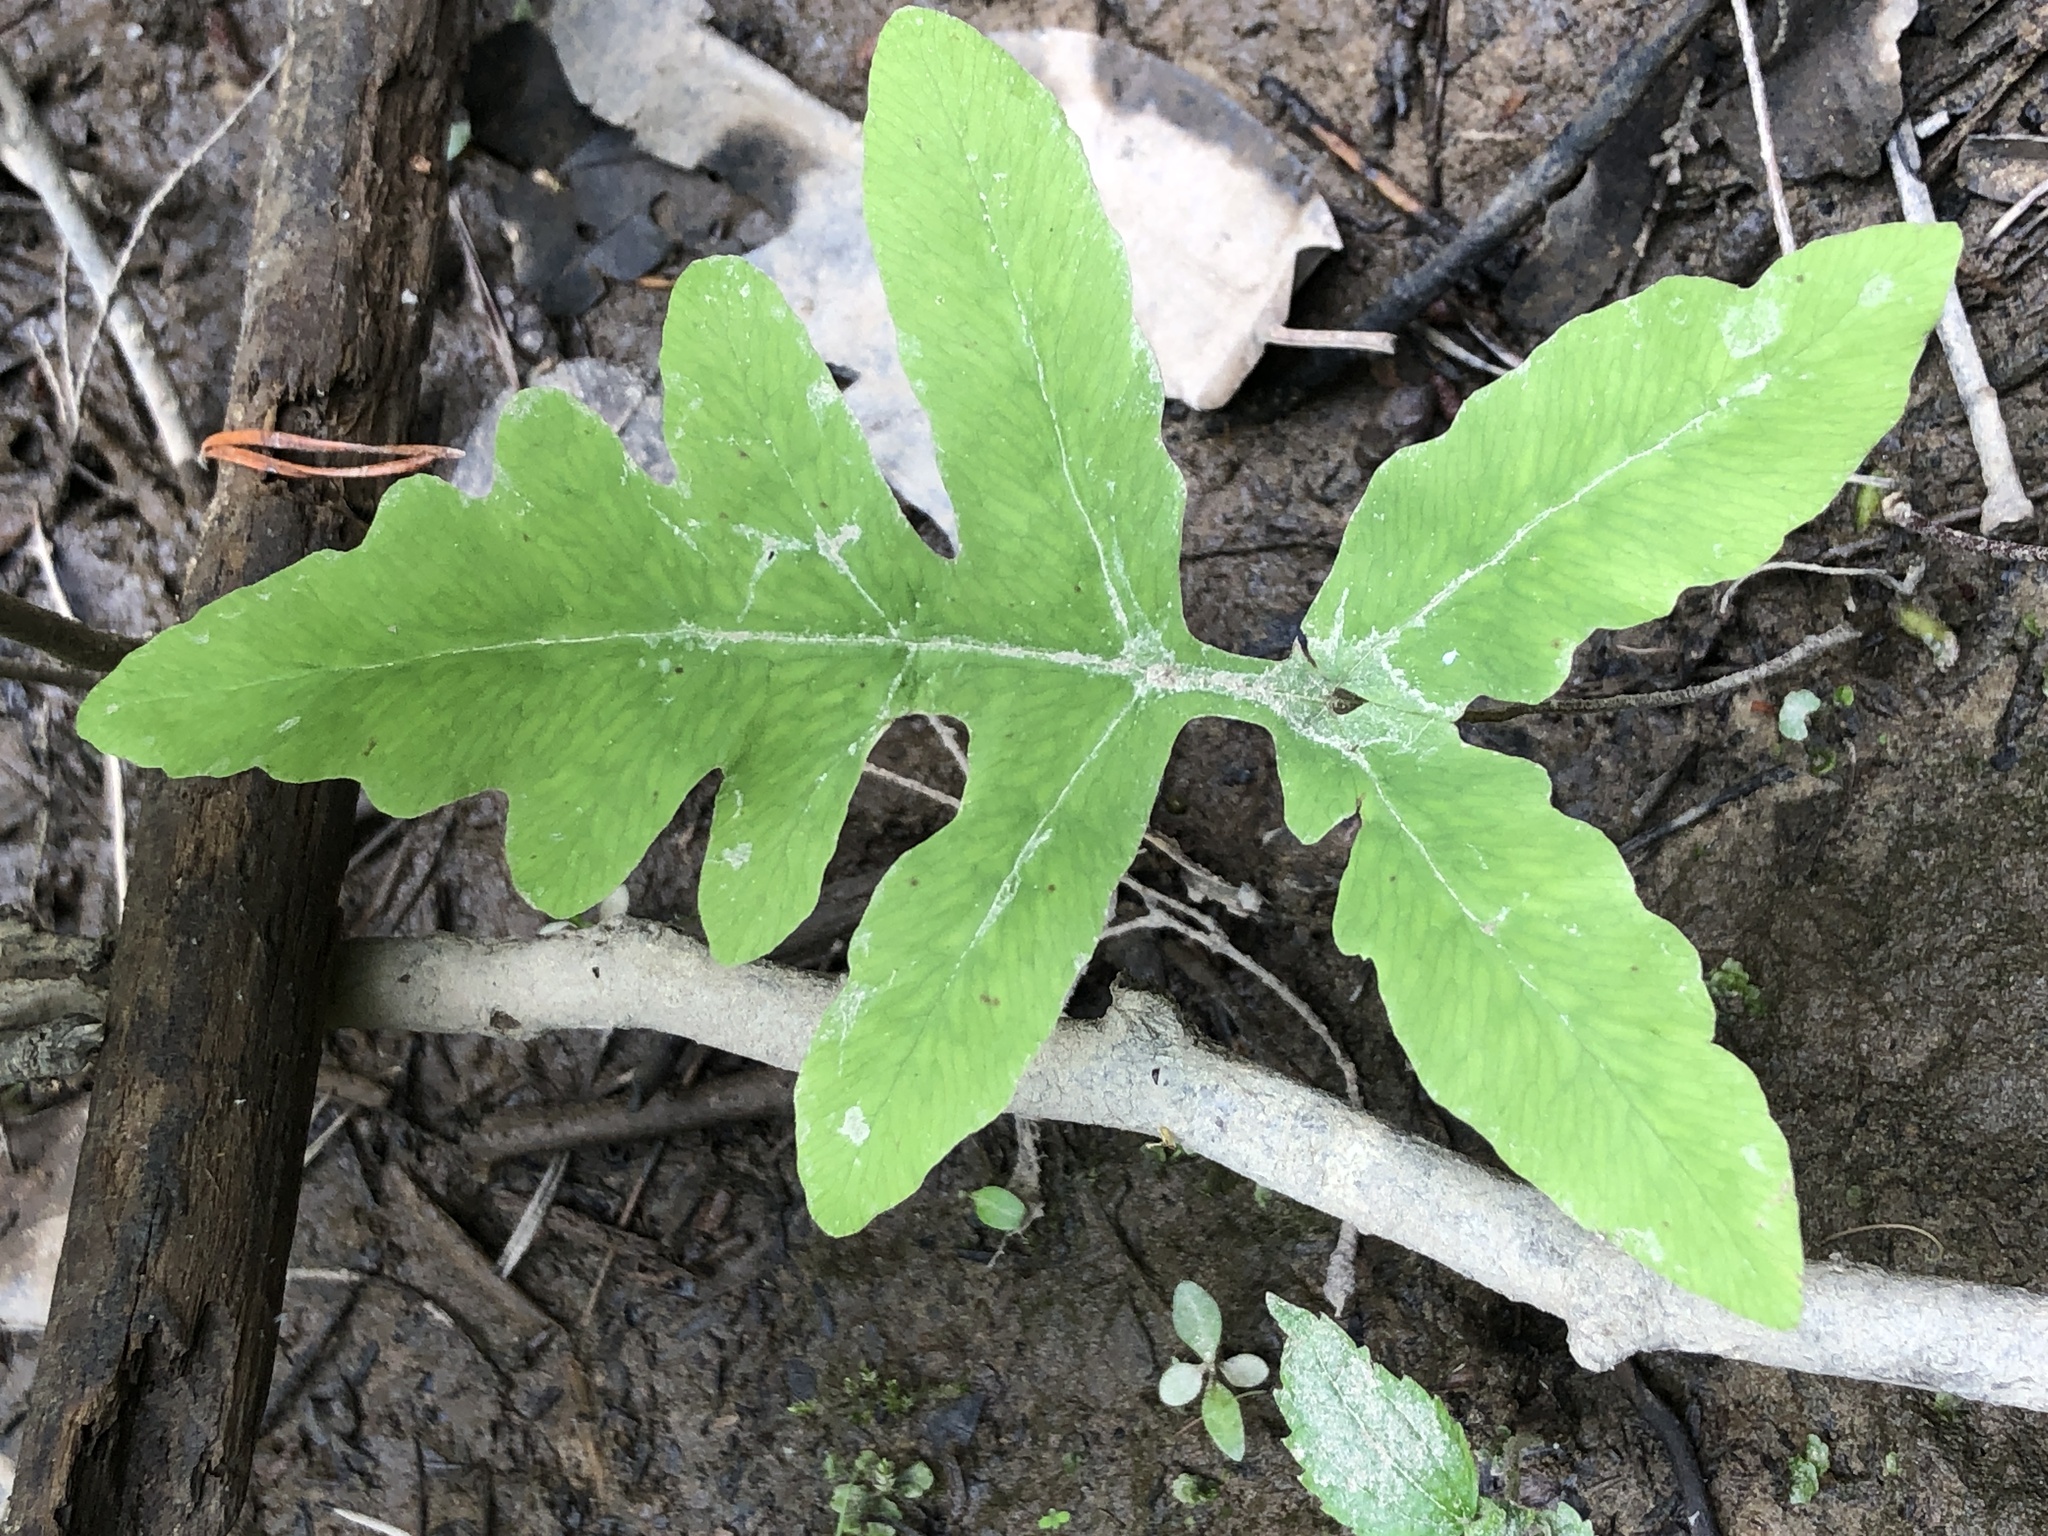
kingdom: Plantae
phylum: Tracheophyta
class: Polypodiopsida
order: Polypodiales
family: Onocleaceae
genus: Onoclea
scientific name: Onoclea sensibilis
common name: Sensitive fern
